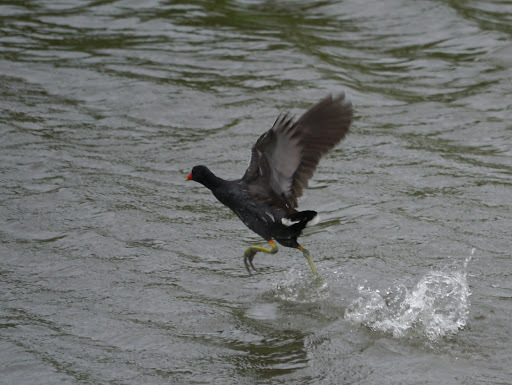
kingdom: Animalia
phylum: Chordata
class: Aves
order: Gruiformes
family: Rallidae
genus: Gallinula
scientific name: Gallinula chloropus
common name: Common moorhen
